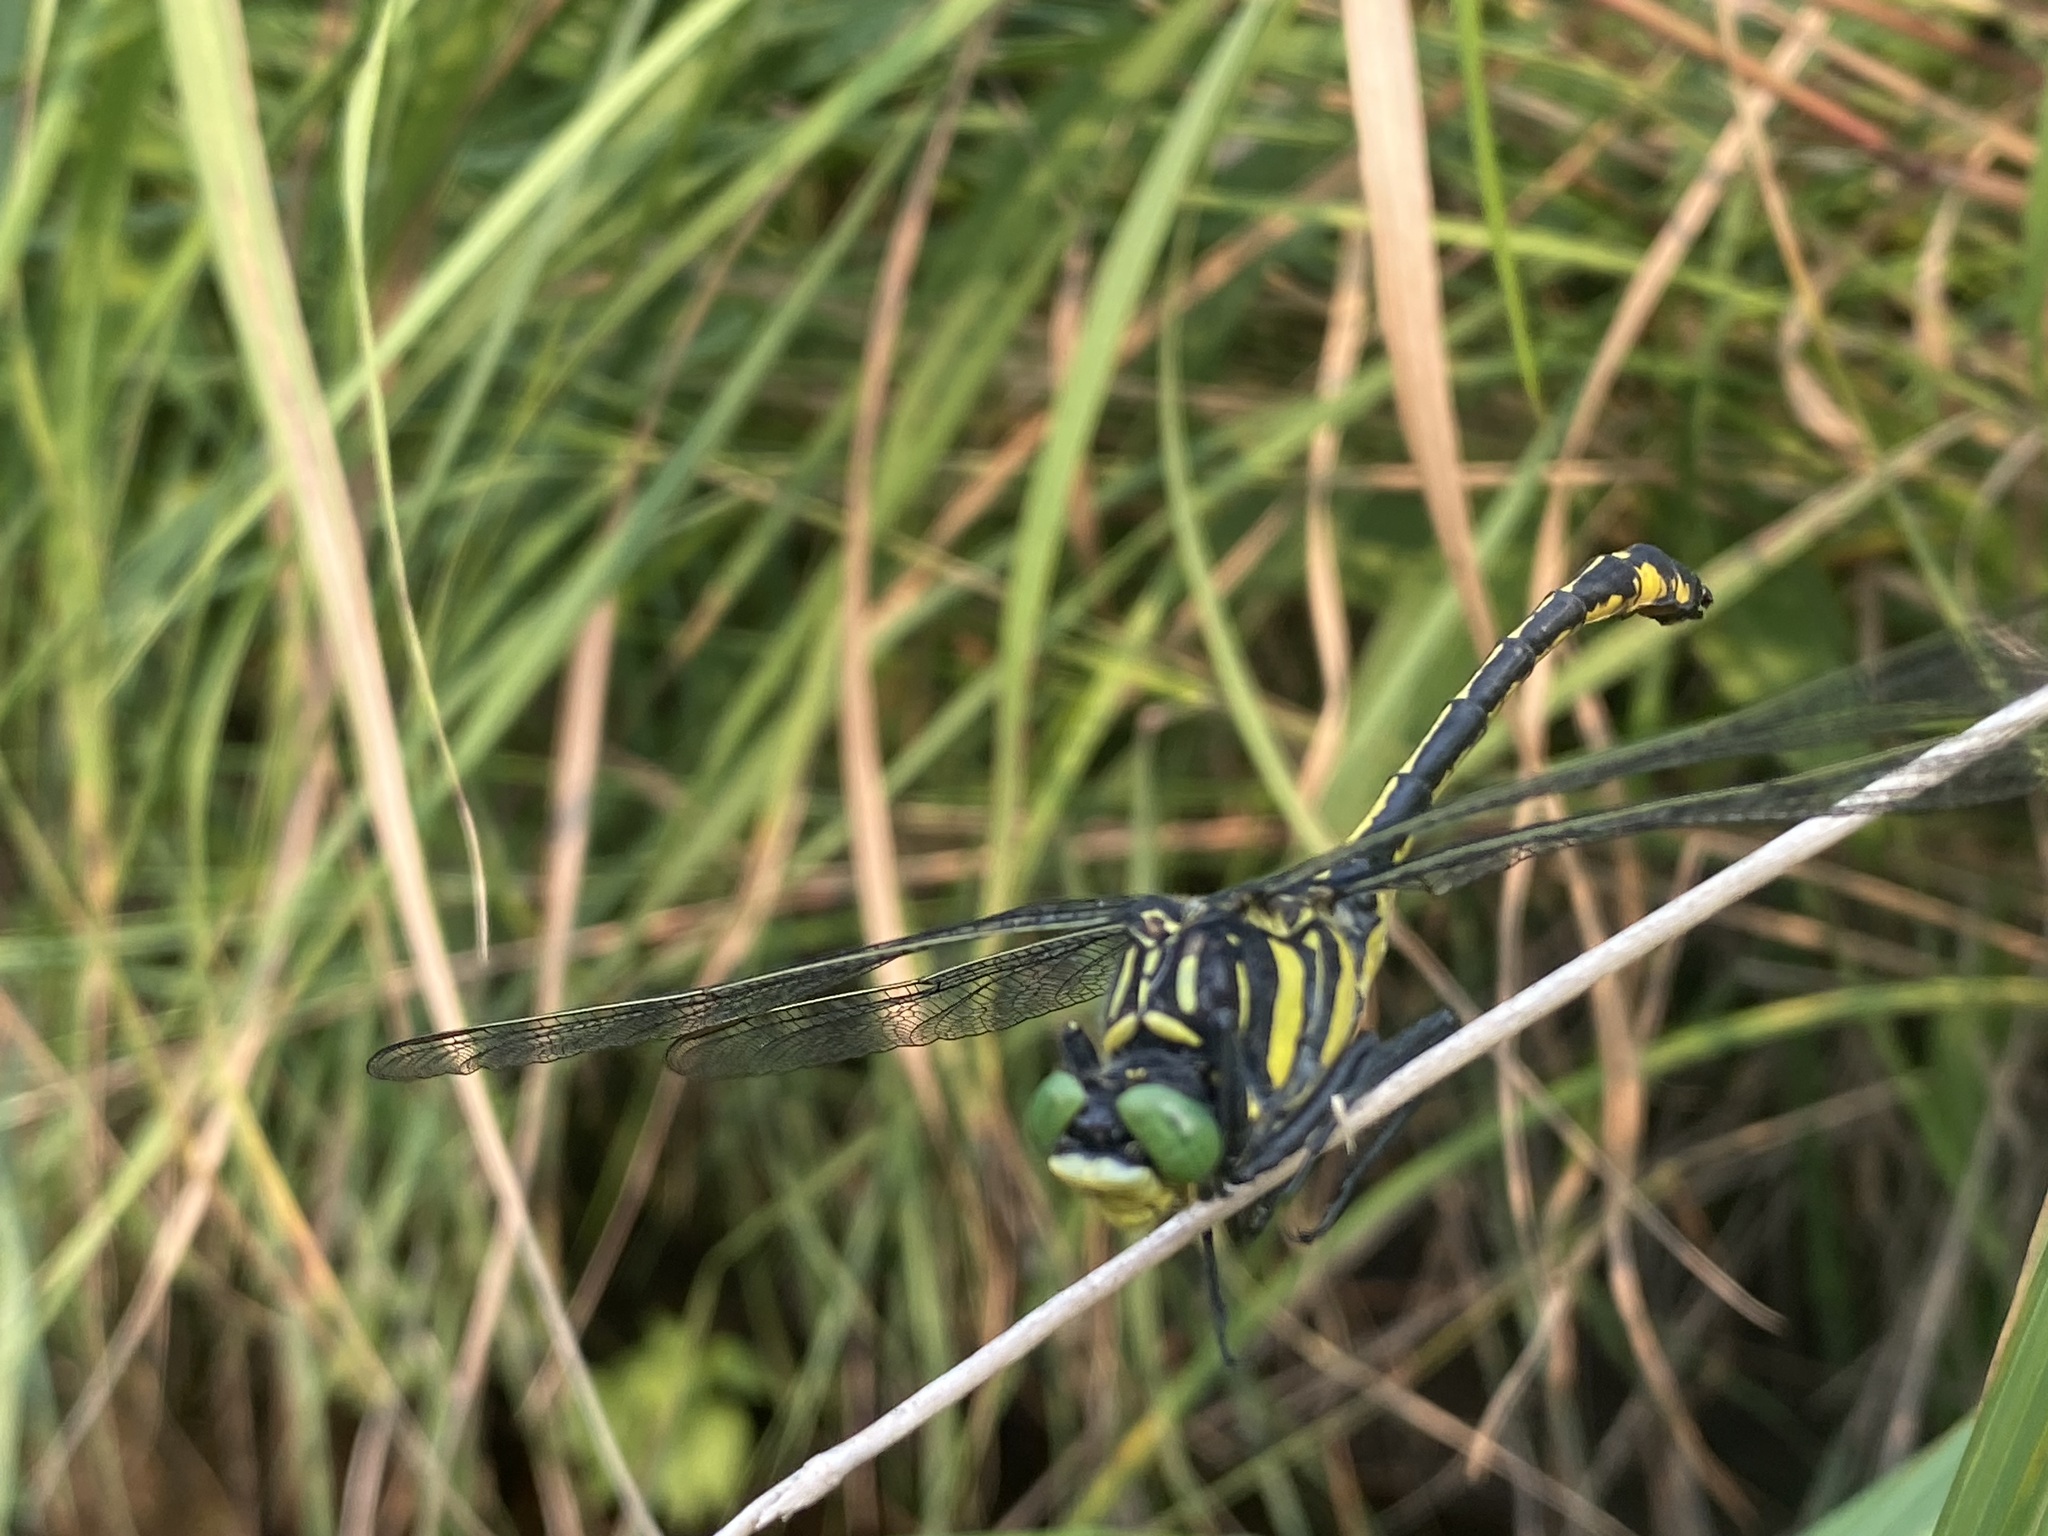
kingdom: Animalia
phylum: Arthropoda
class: Insecta
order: Odonata
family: Gomphidae
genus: Hagenius
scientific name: Hagenius brevistylus
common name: Dragonhunter
